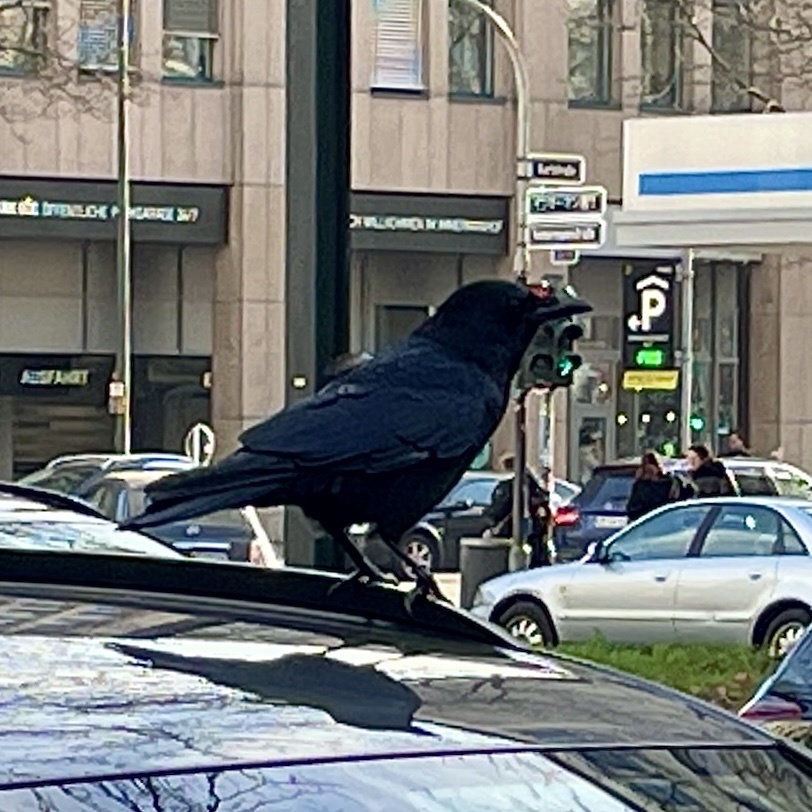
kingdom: Animalia
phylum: Chordata
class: Aves
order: Passeriformes
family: Corvidae
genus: Corvus
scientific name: Corvus corone
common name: Carrion crow
